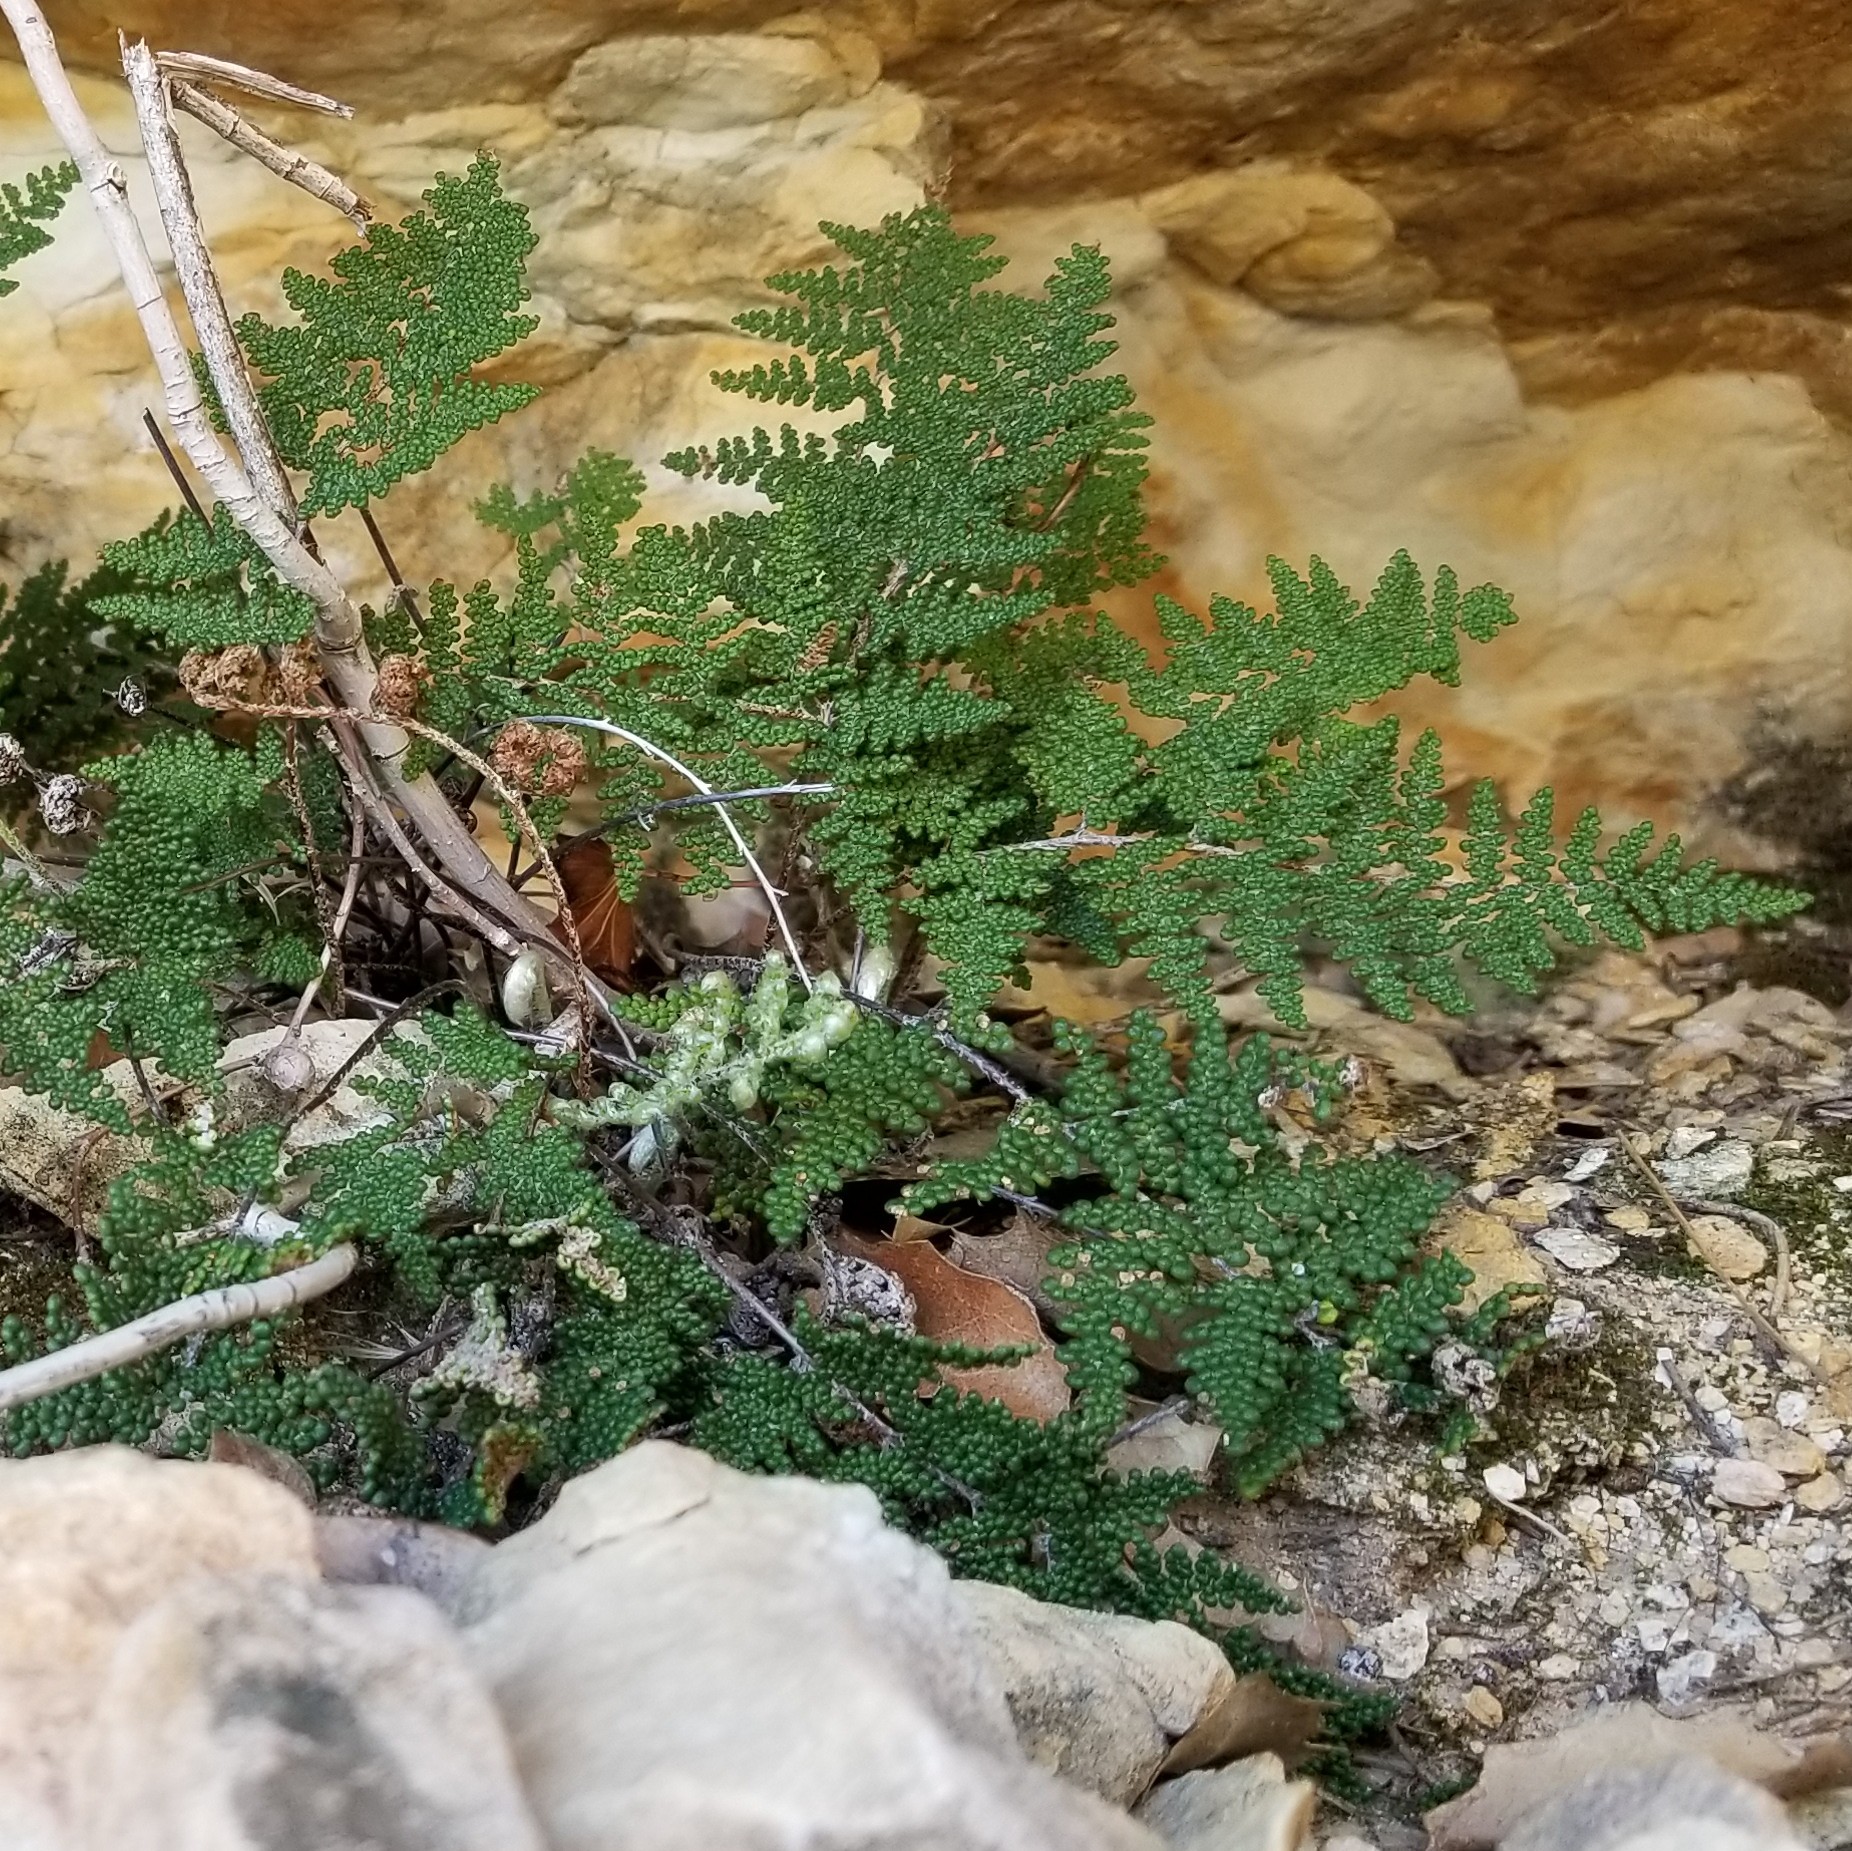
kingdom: Plantae
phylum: Tracheophyta
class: Polypodiopsida
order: Polypodiales
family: Pteridaceae
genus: Myriopteris
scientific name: Myriopteris covillei
